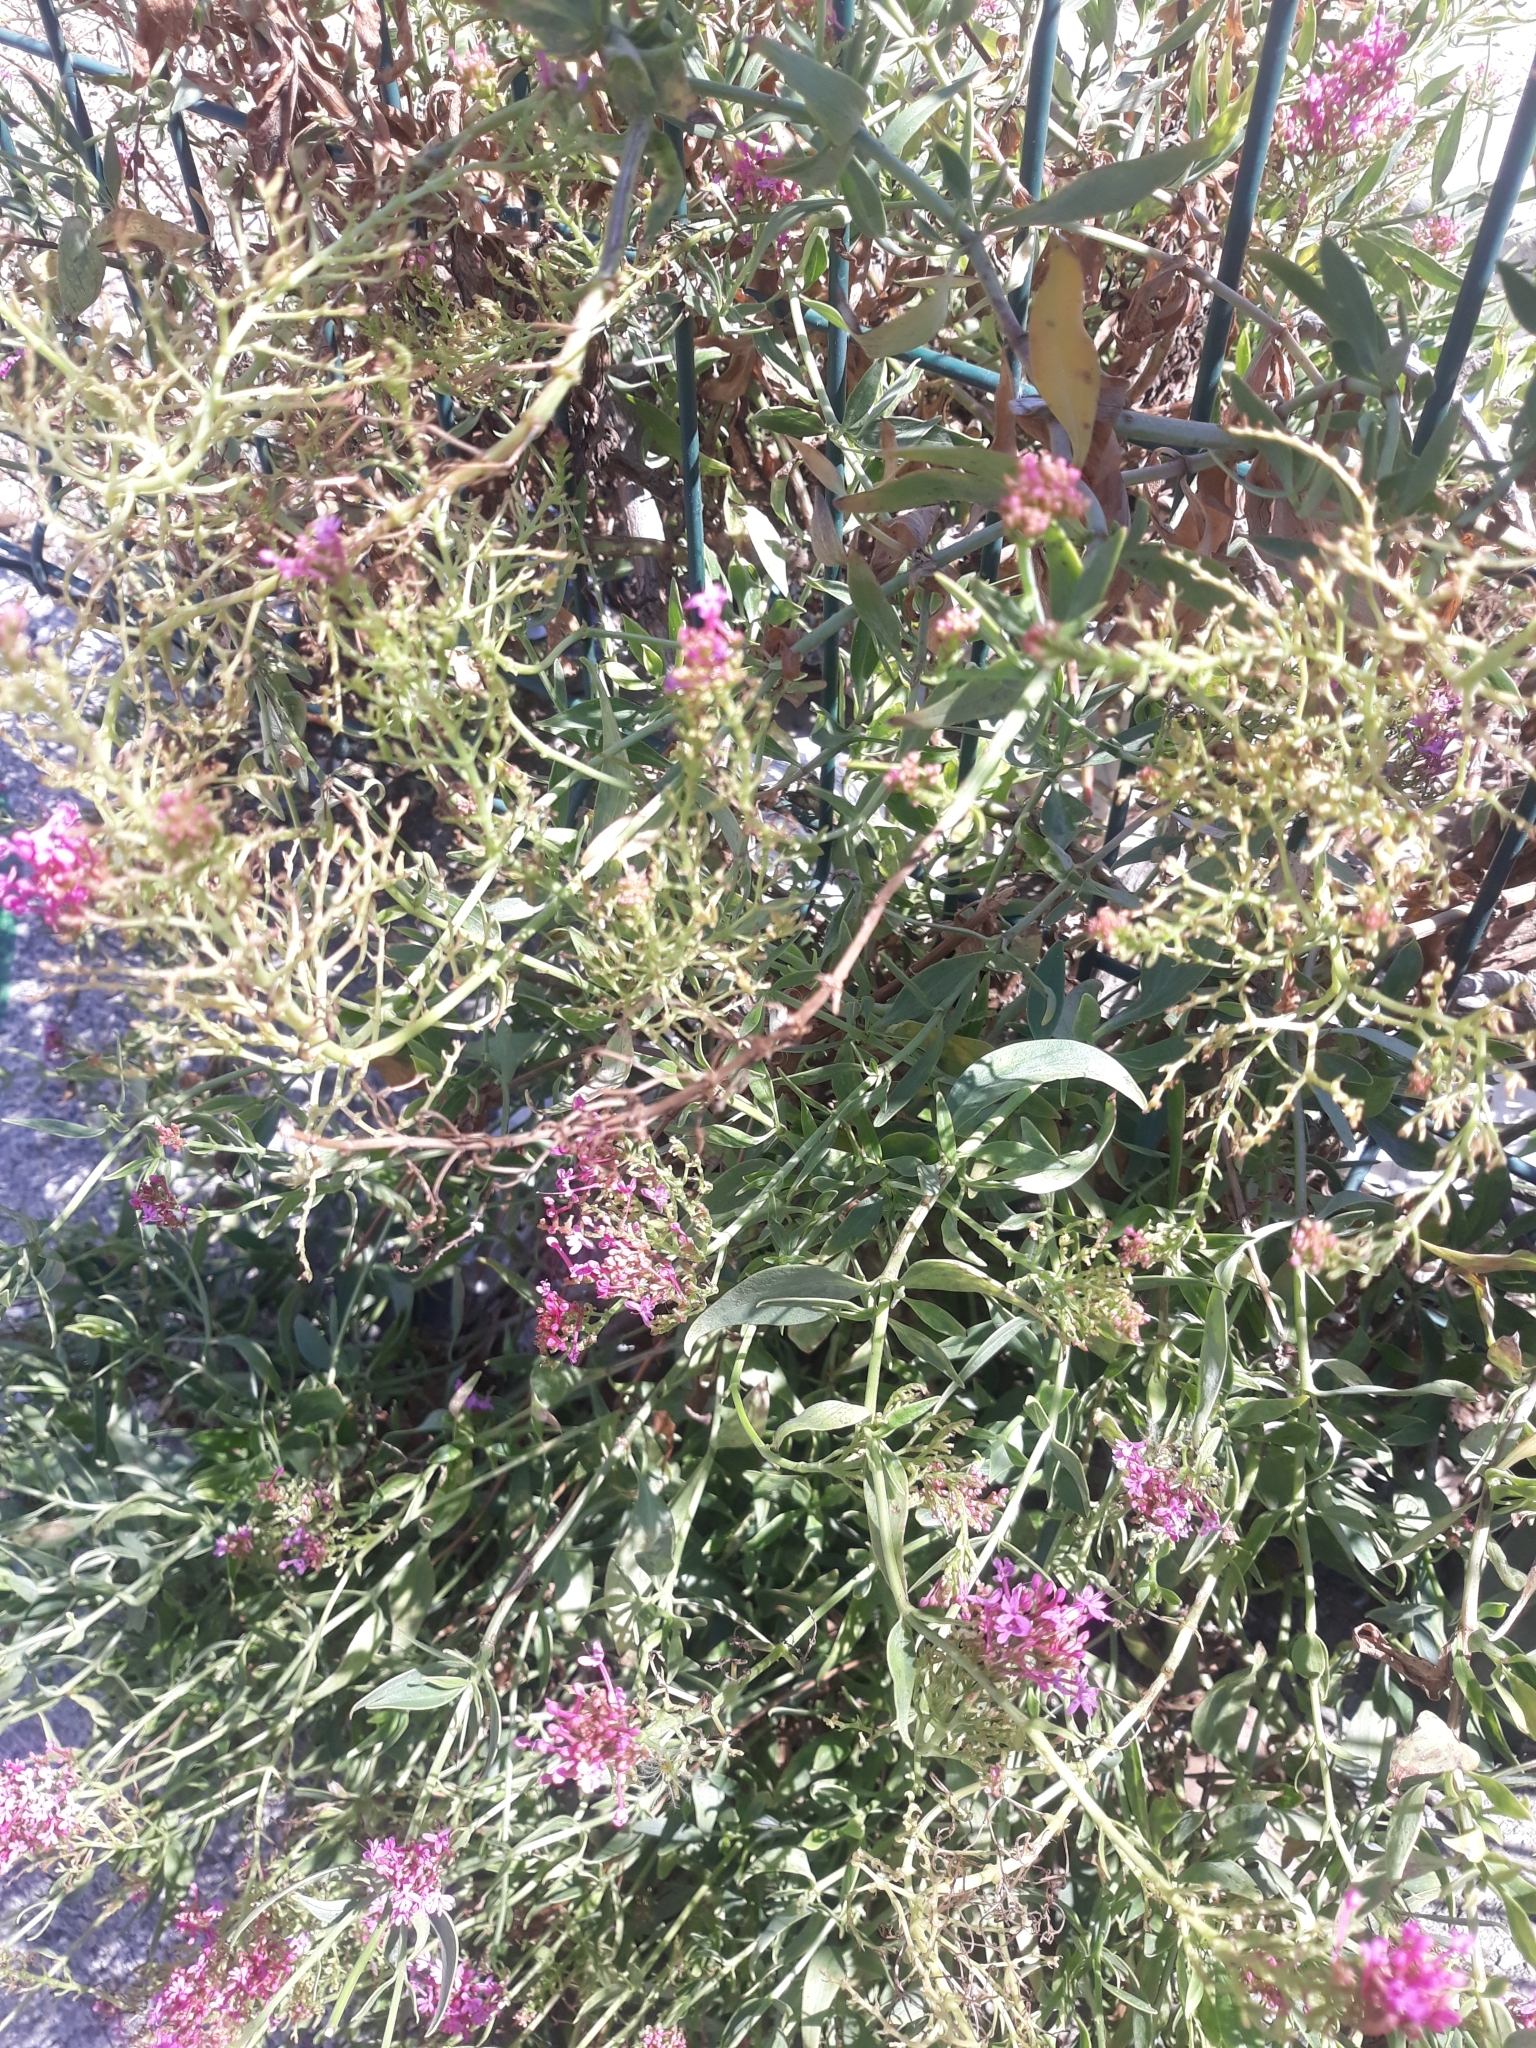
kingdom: Plantae
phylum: Tracheophyta
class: Magnoliopsida
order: Dipsacales
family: Caprifoliaceae
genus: Centranthus
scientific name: Centranthus ruber
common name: Red valerian
